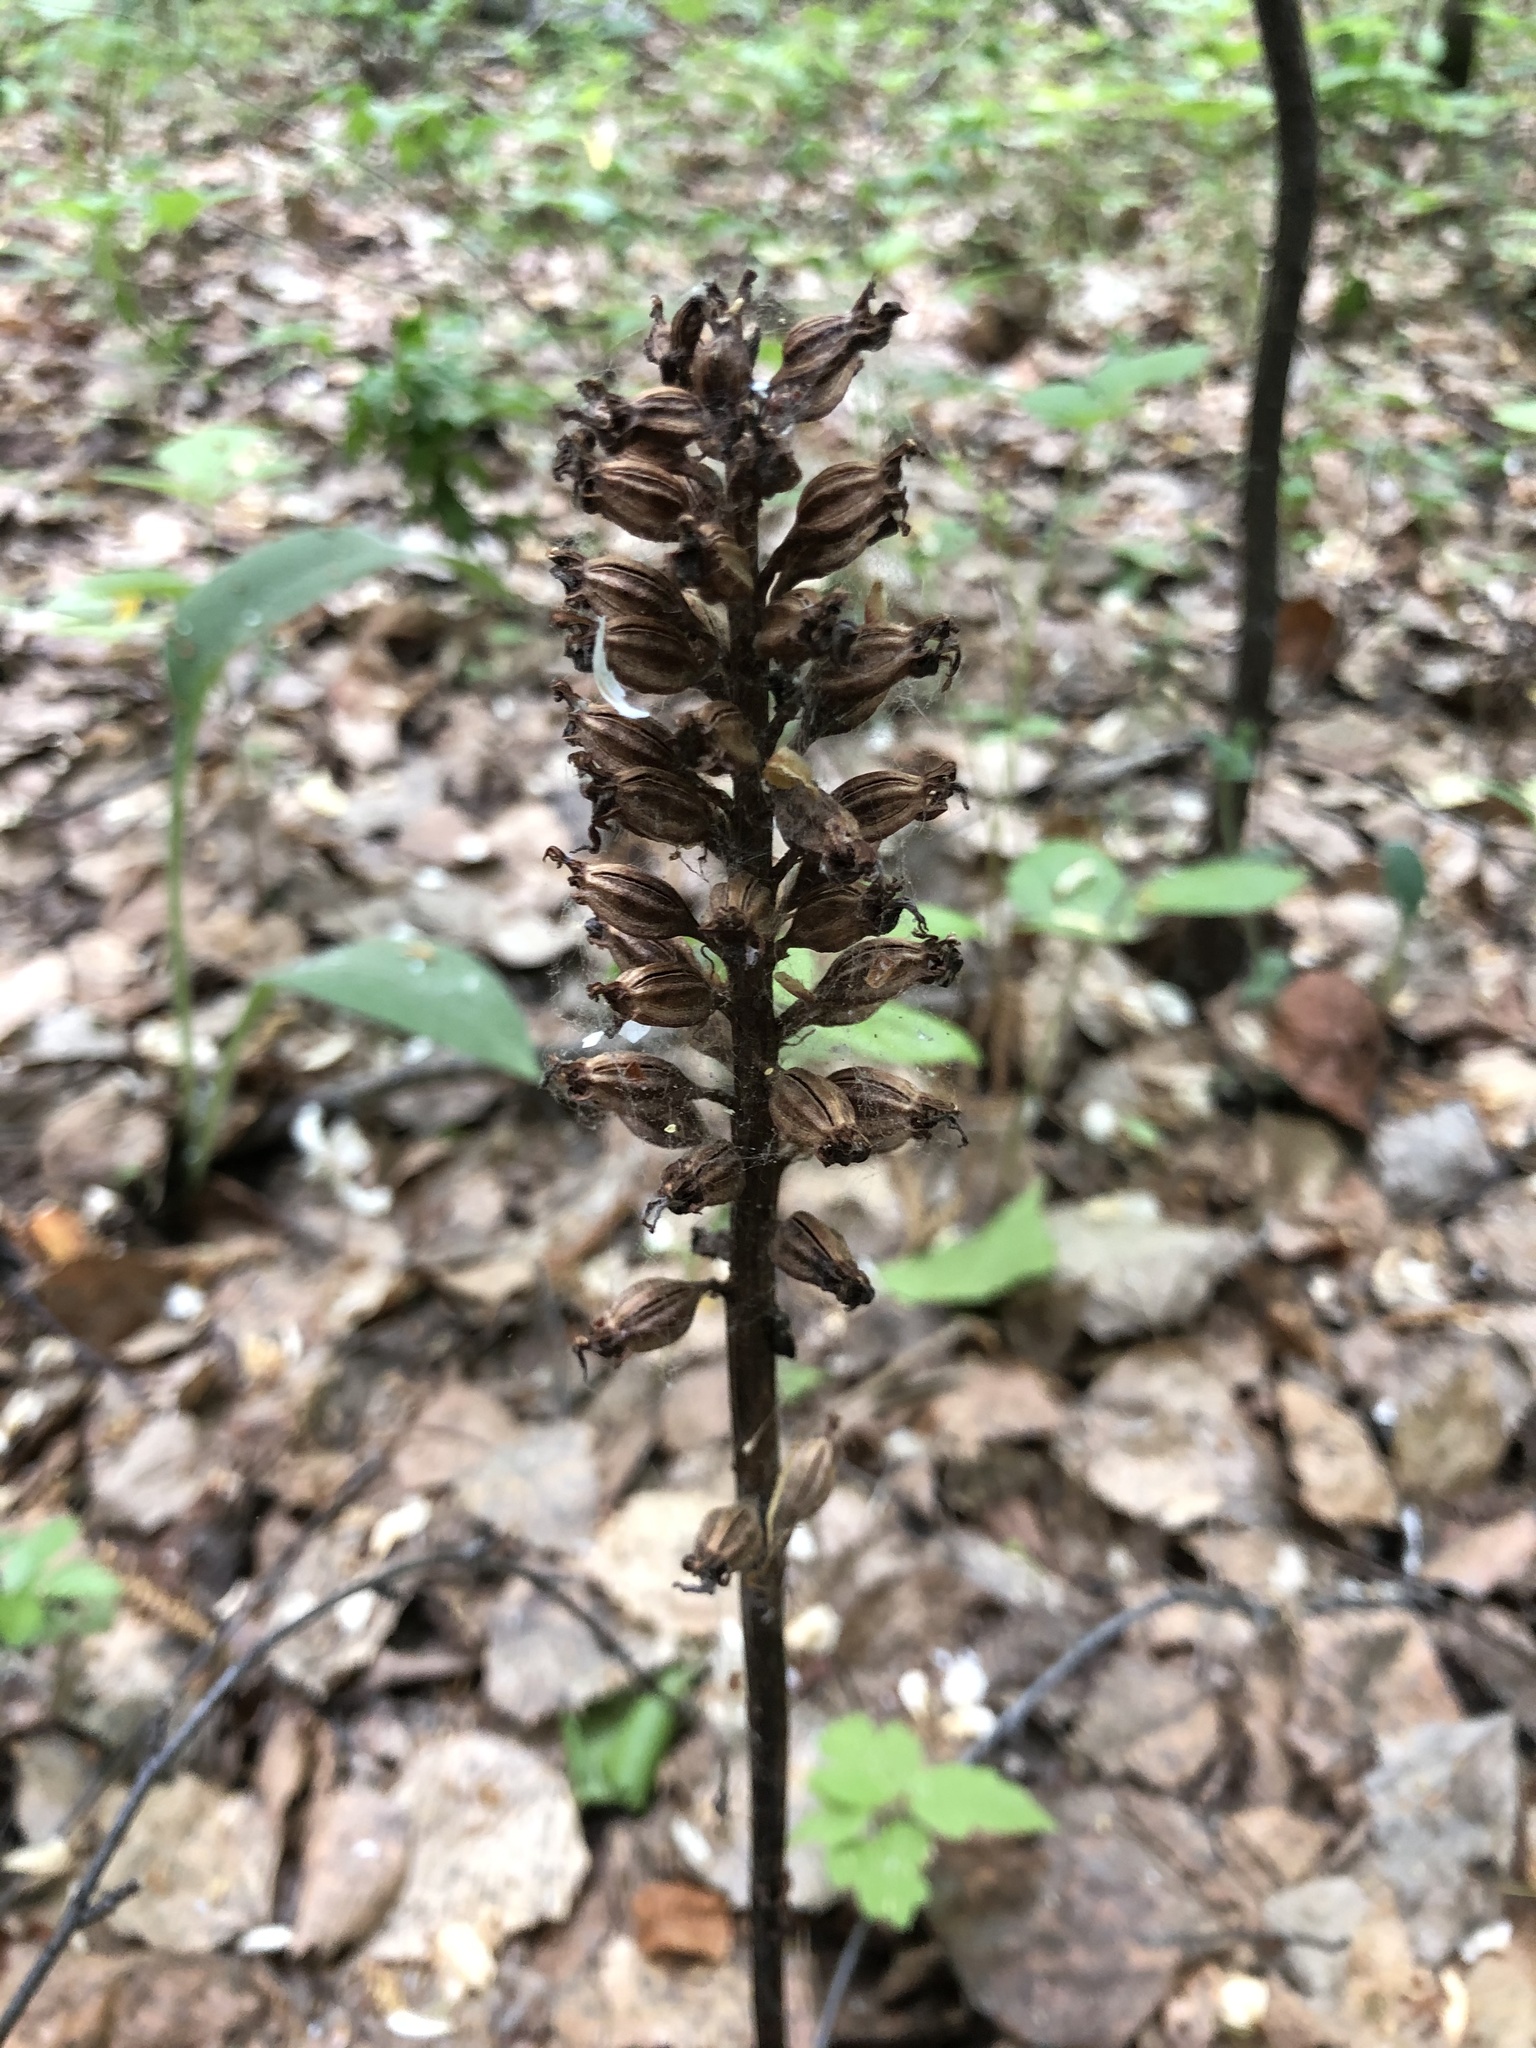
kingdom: Plantae
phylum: Tracheophyta
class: Liliopsida
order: Asparagales
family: Orchidaceae
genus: Neottia
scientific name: Neottia nidus-avis
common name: Bird's-nest orchid
